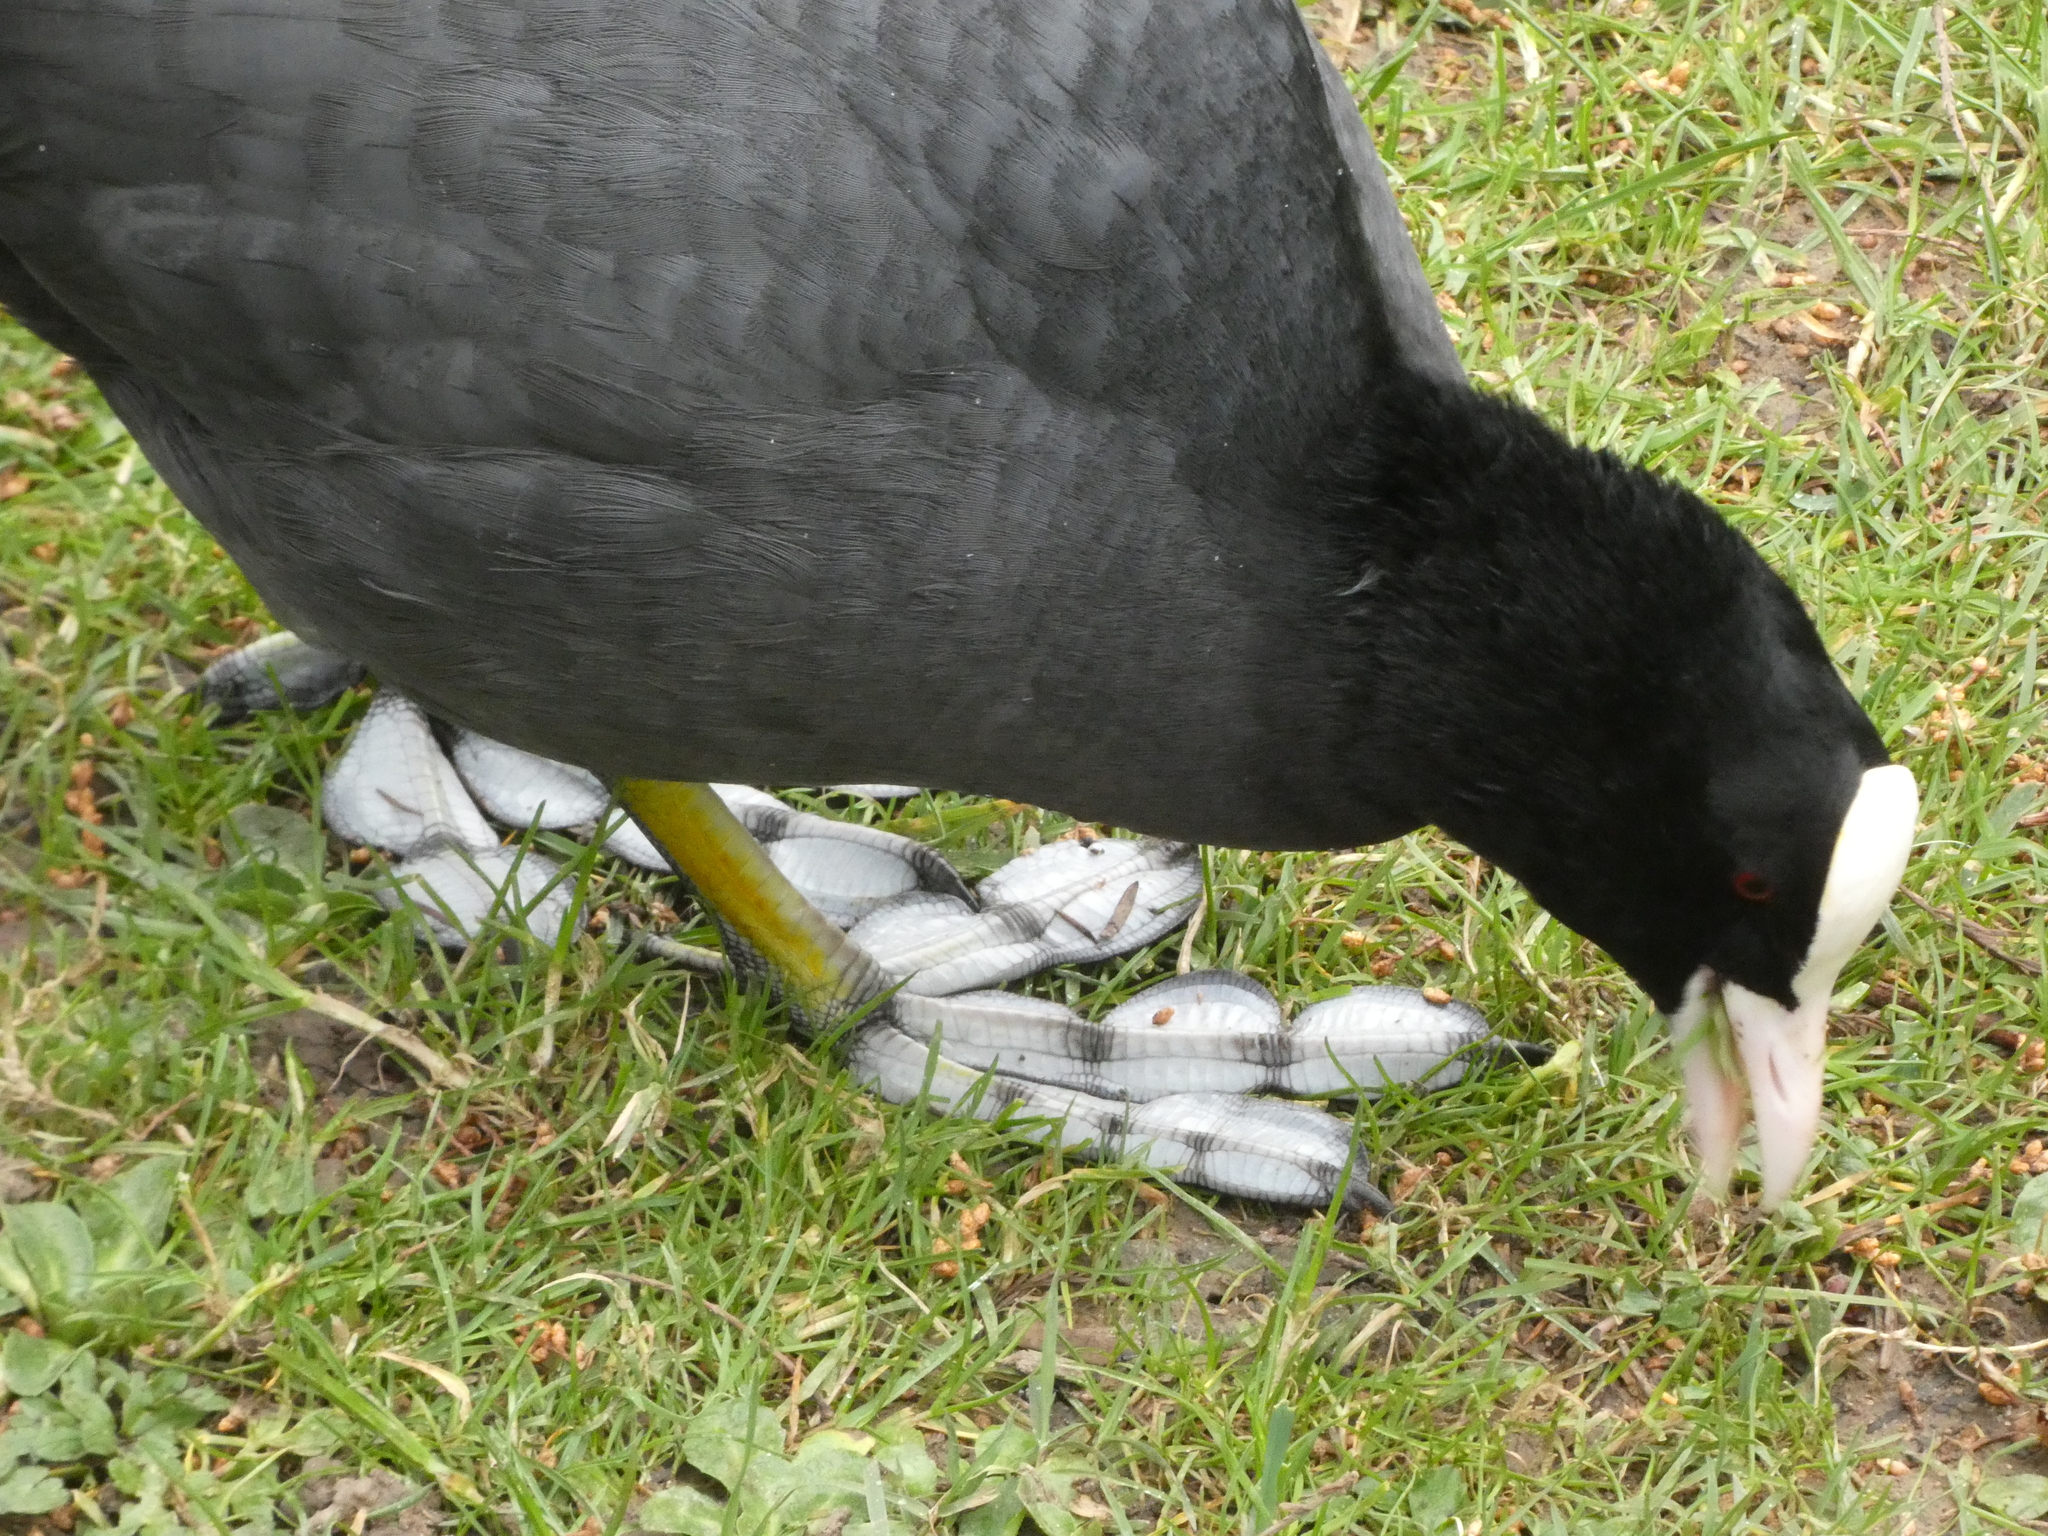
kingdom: Animalia
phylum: Chordata
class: Aves
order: Gruiformes
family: Rallidae
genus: Fulica
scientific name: Fulica atra
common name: Eurasian coot
